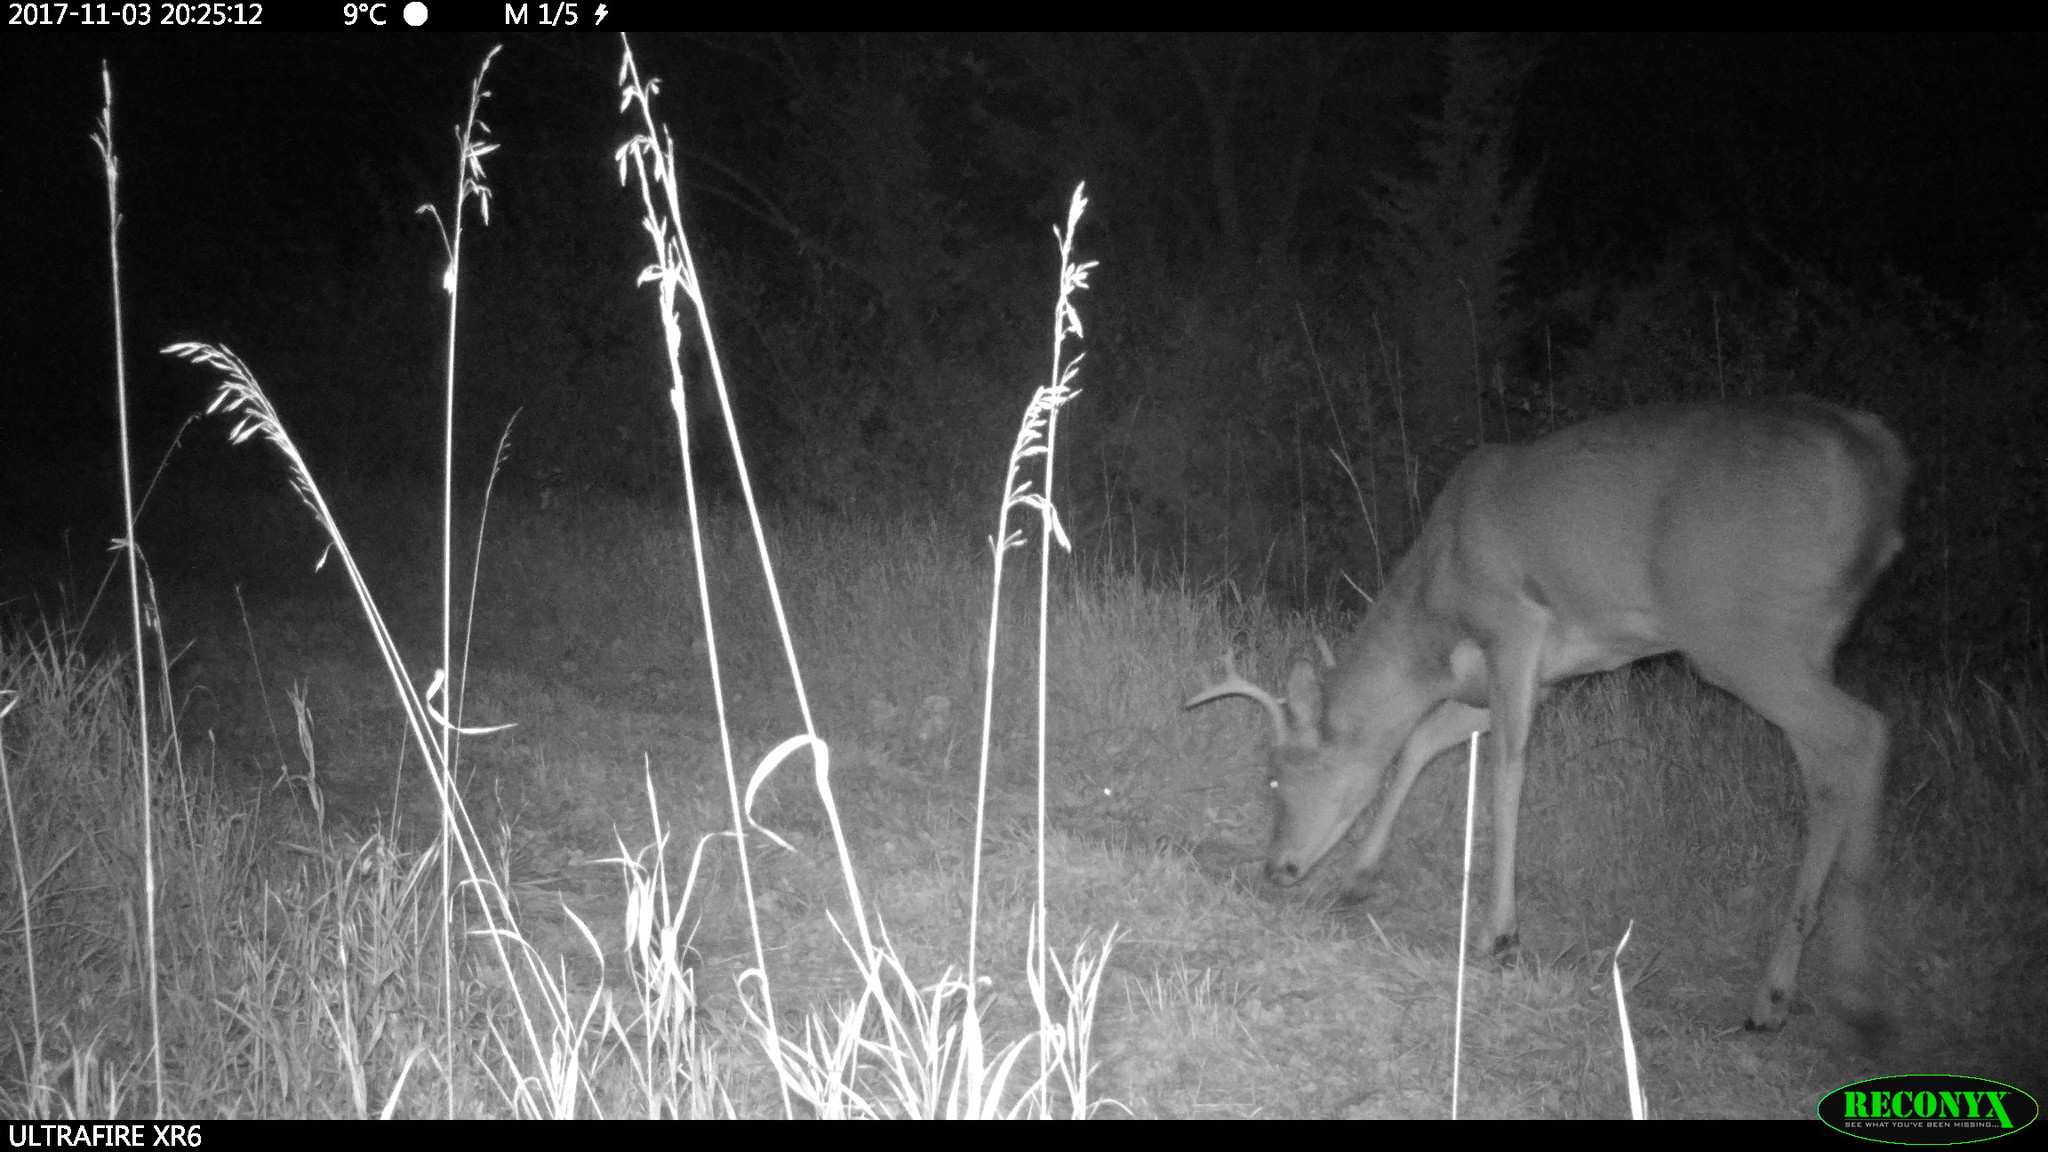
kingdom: Animalia
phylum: Chordata
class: Mammalia
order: Artiodactyla
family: Cervidae
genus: Odocoileus
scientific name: Odocoileus virginianus
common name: White-tailed deer
